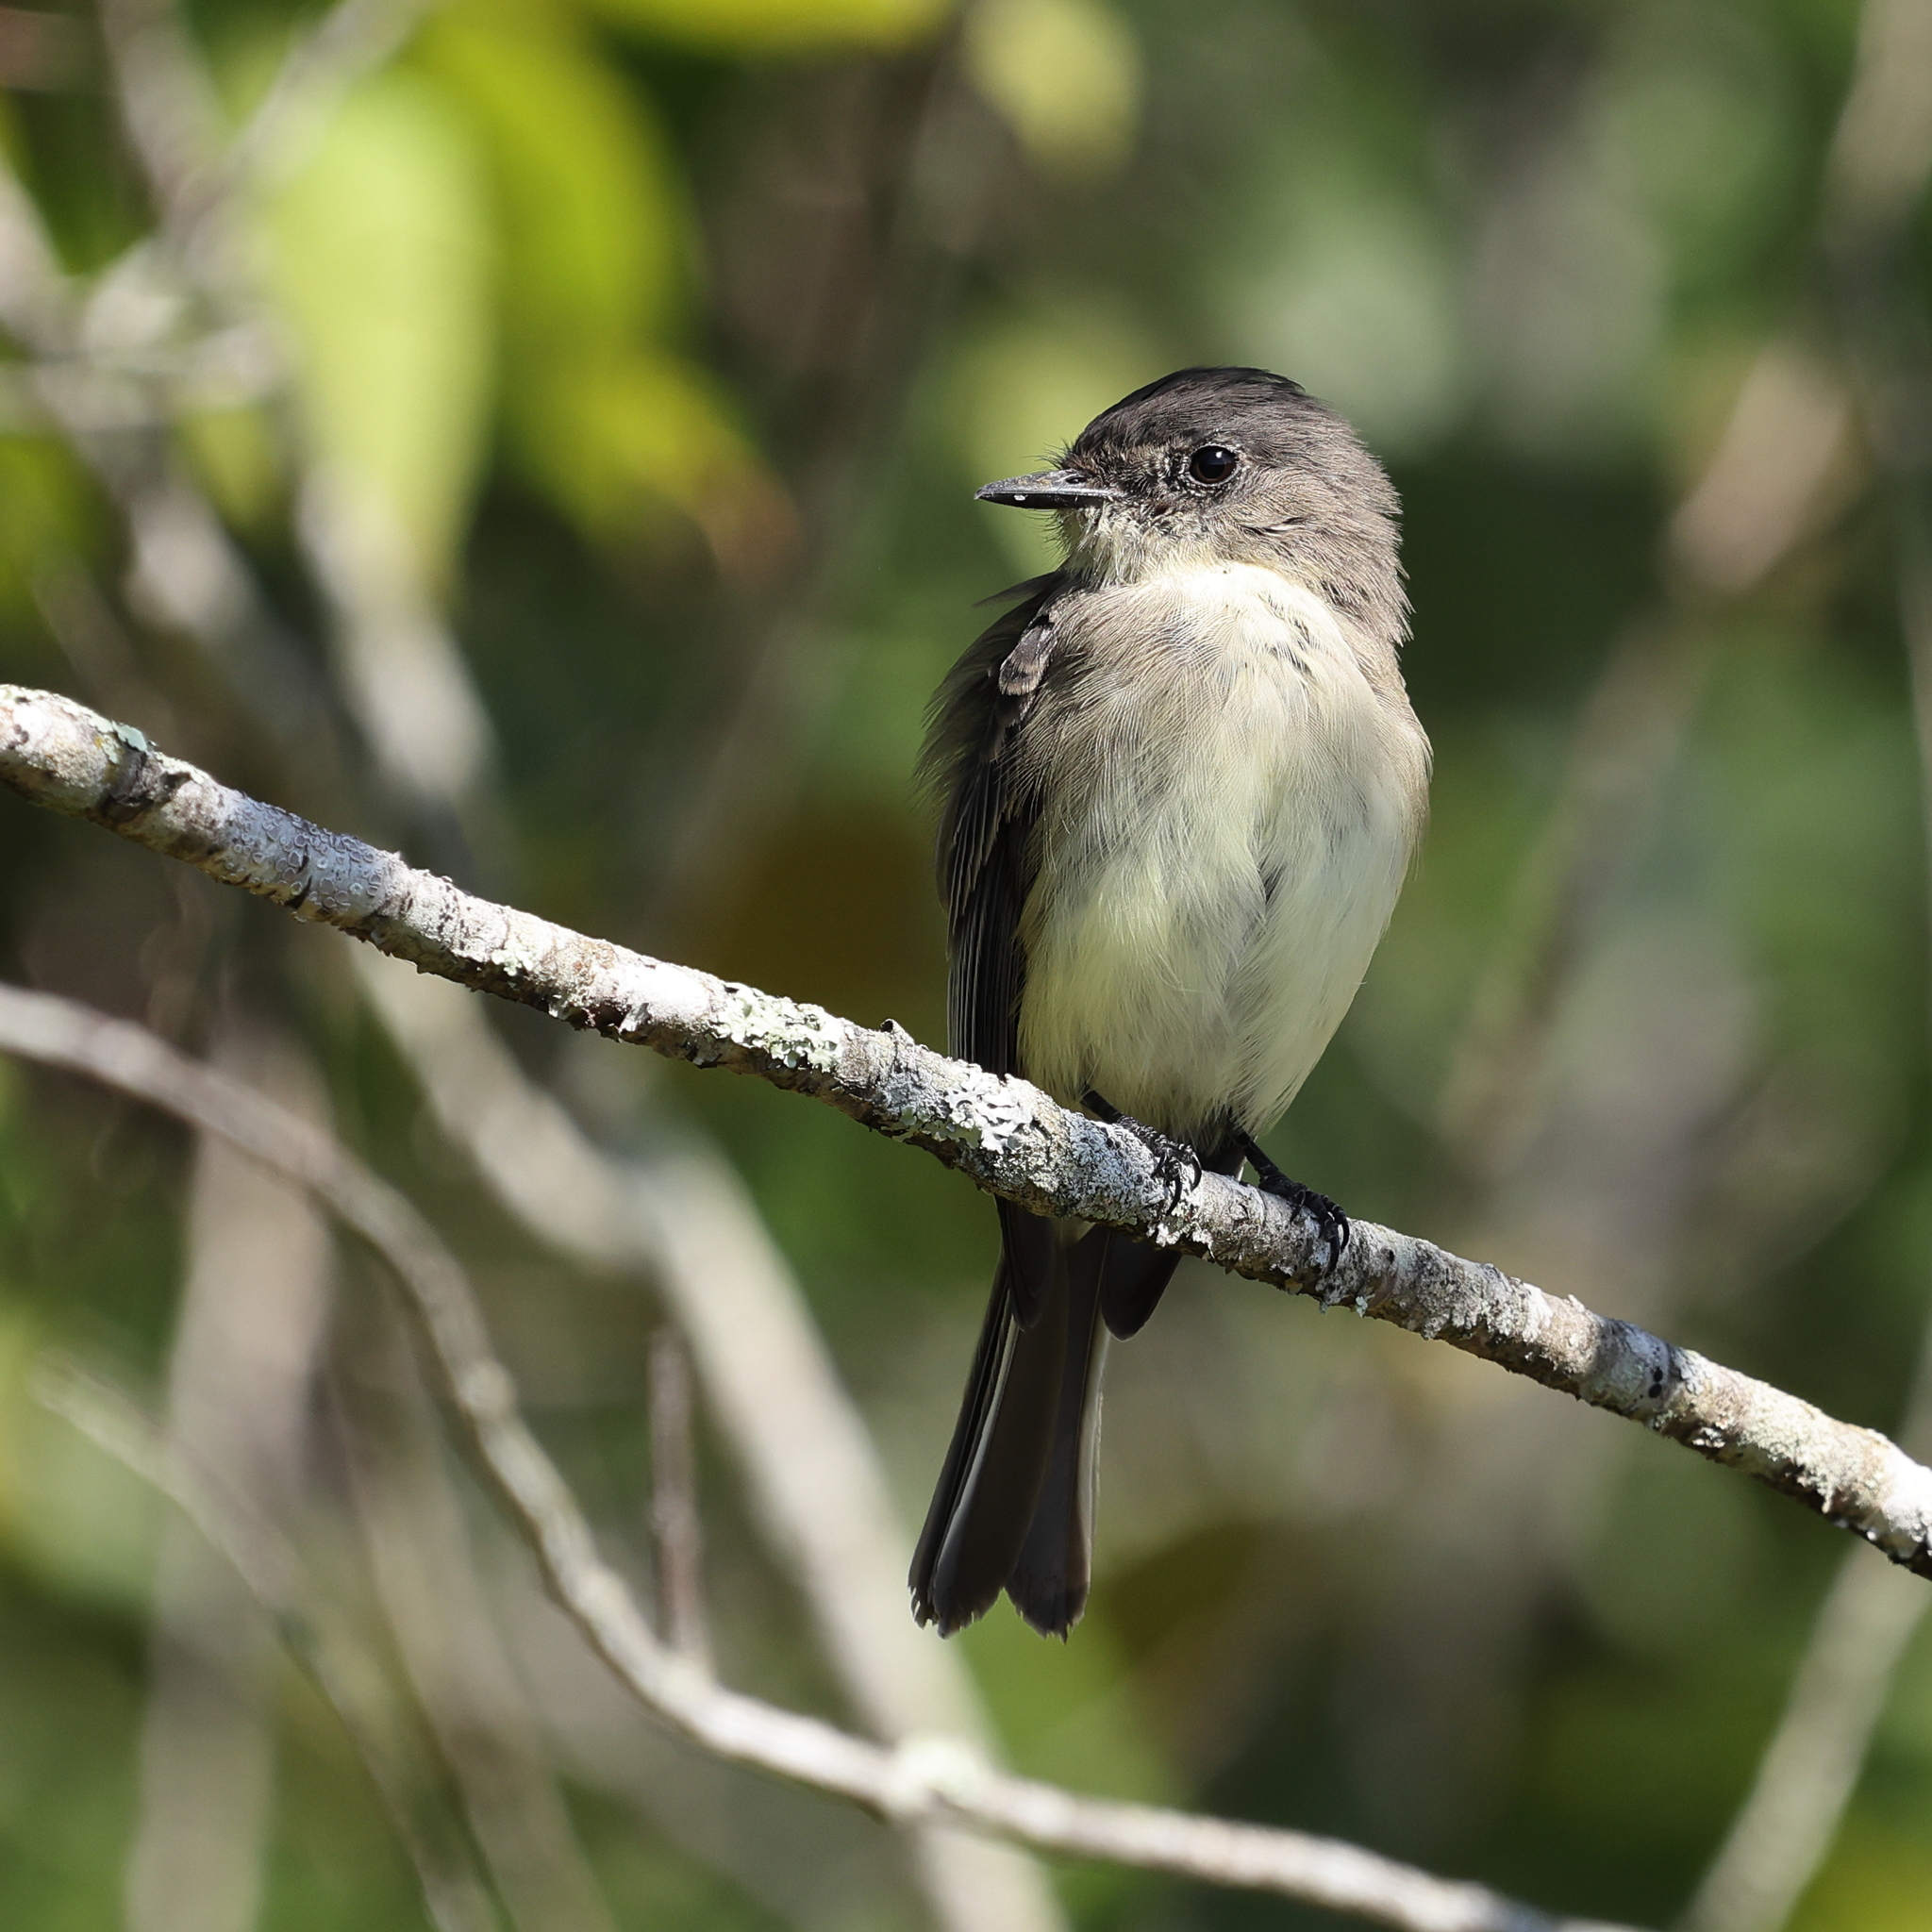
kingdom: Animalia
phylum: Chordata
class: Aves
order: Passeriformes
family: Tyrannidae
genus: Sayornis
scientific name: Sayornis phoebe
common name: Eastern phoebe
